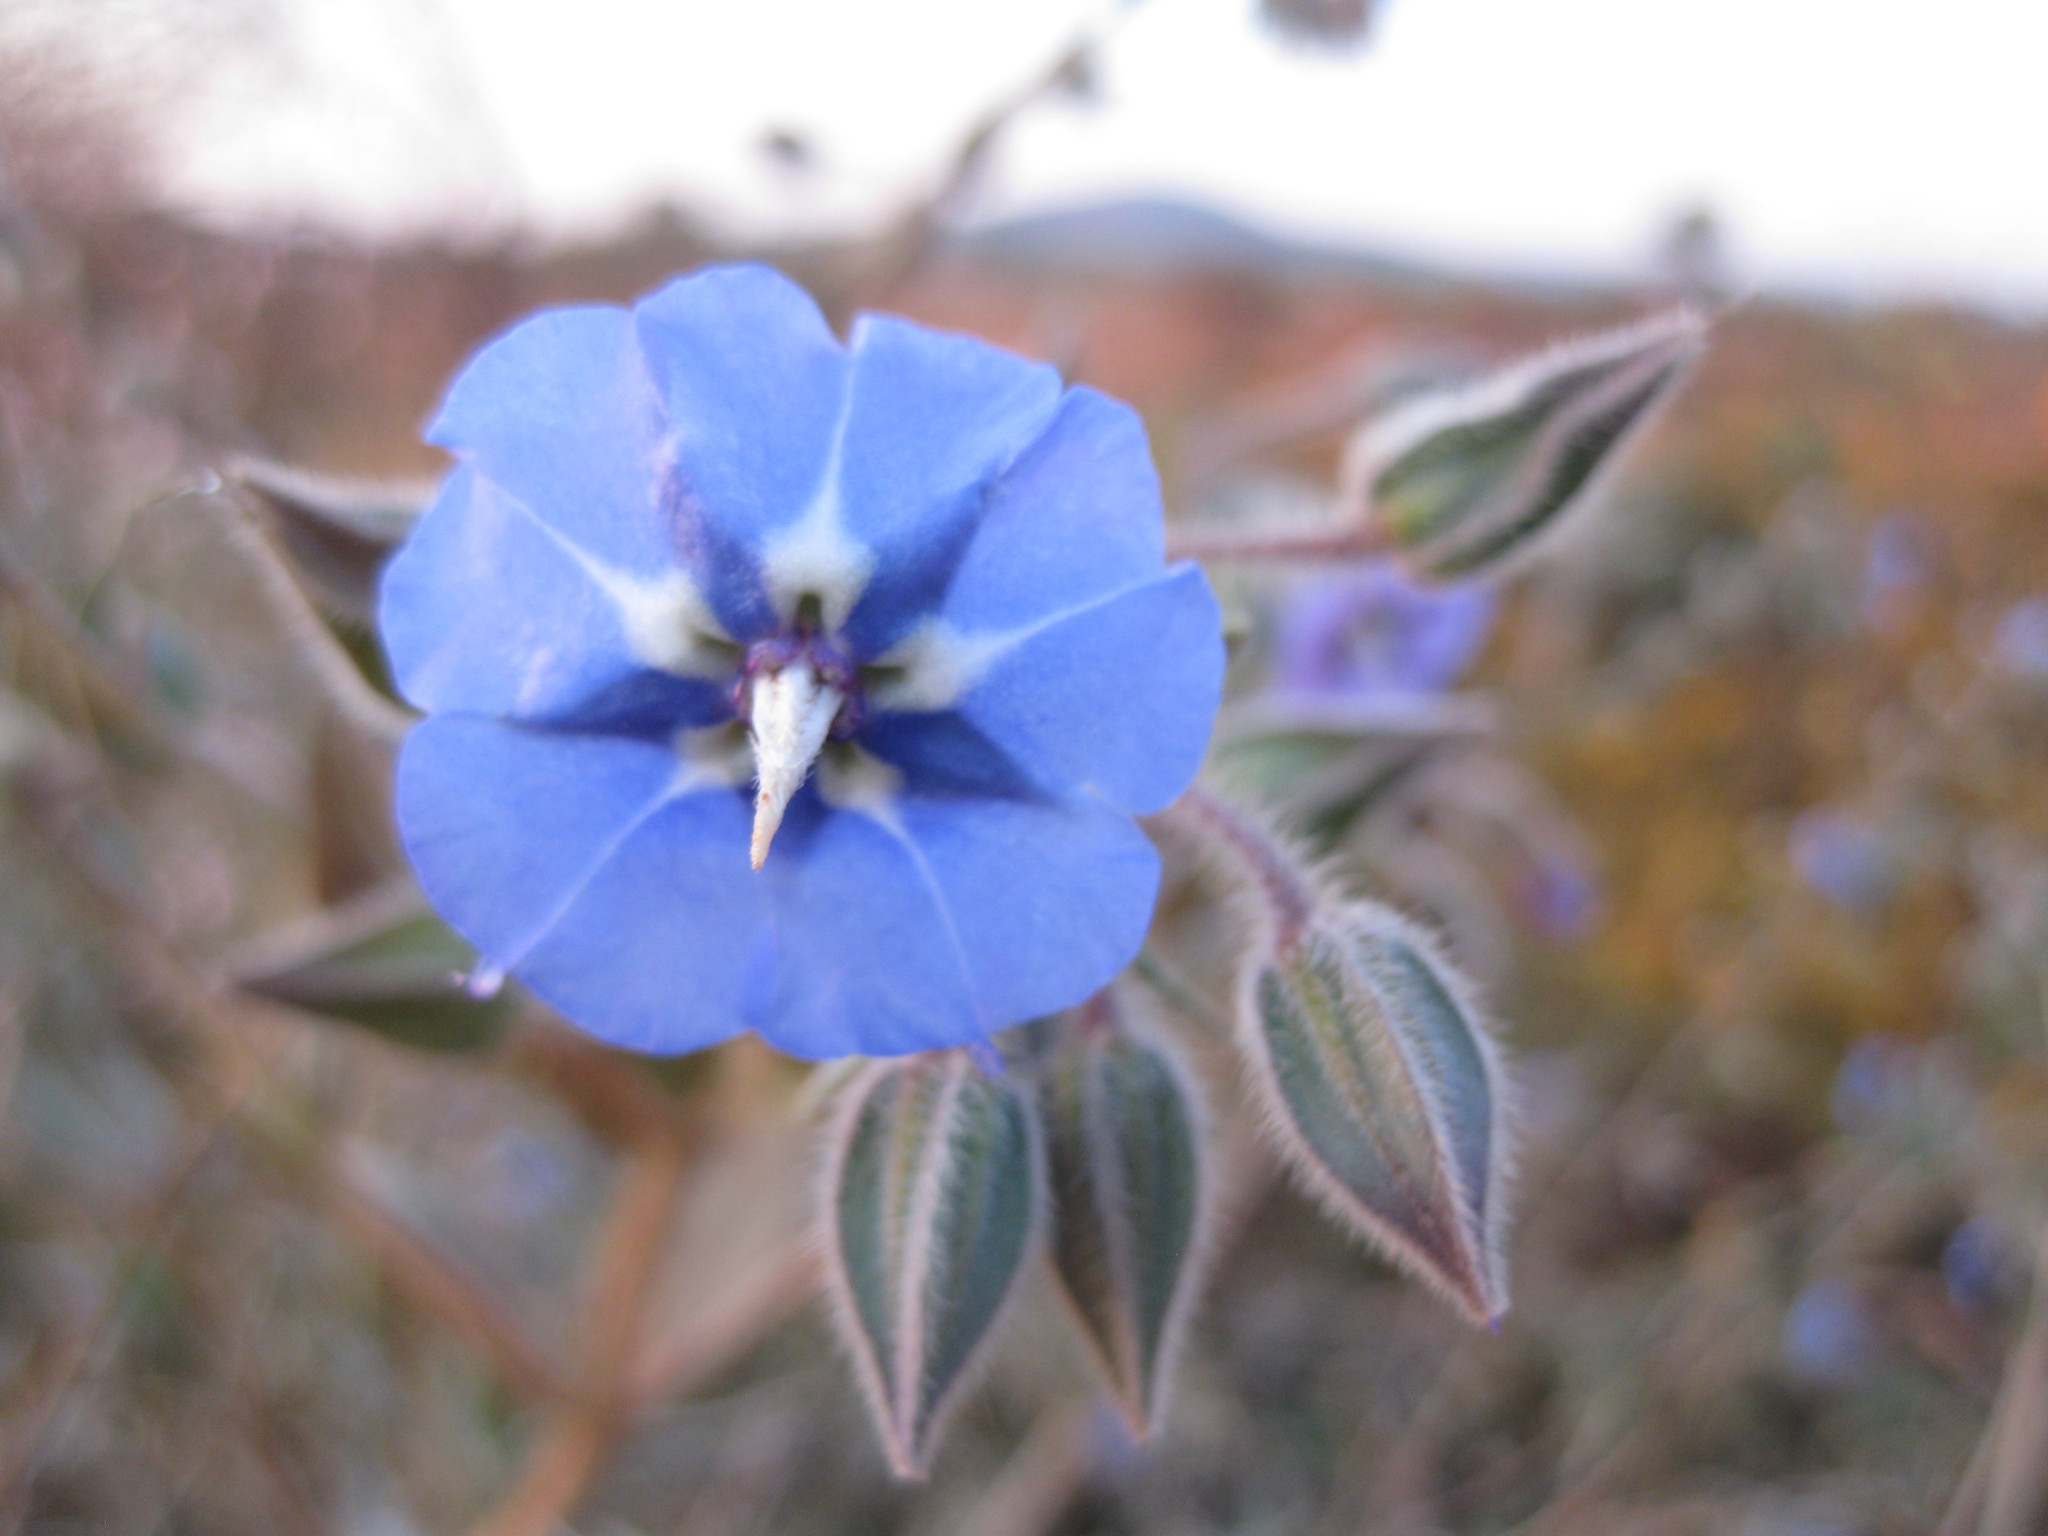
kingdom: Plantae
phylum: Tracheophyta
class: Magnoliopsida
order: Boraginales
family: Boraginaceae
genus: Trichodesma
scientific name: Trichodesma zeylanicum
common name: Camelbush
